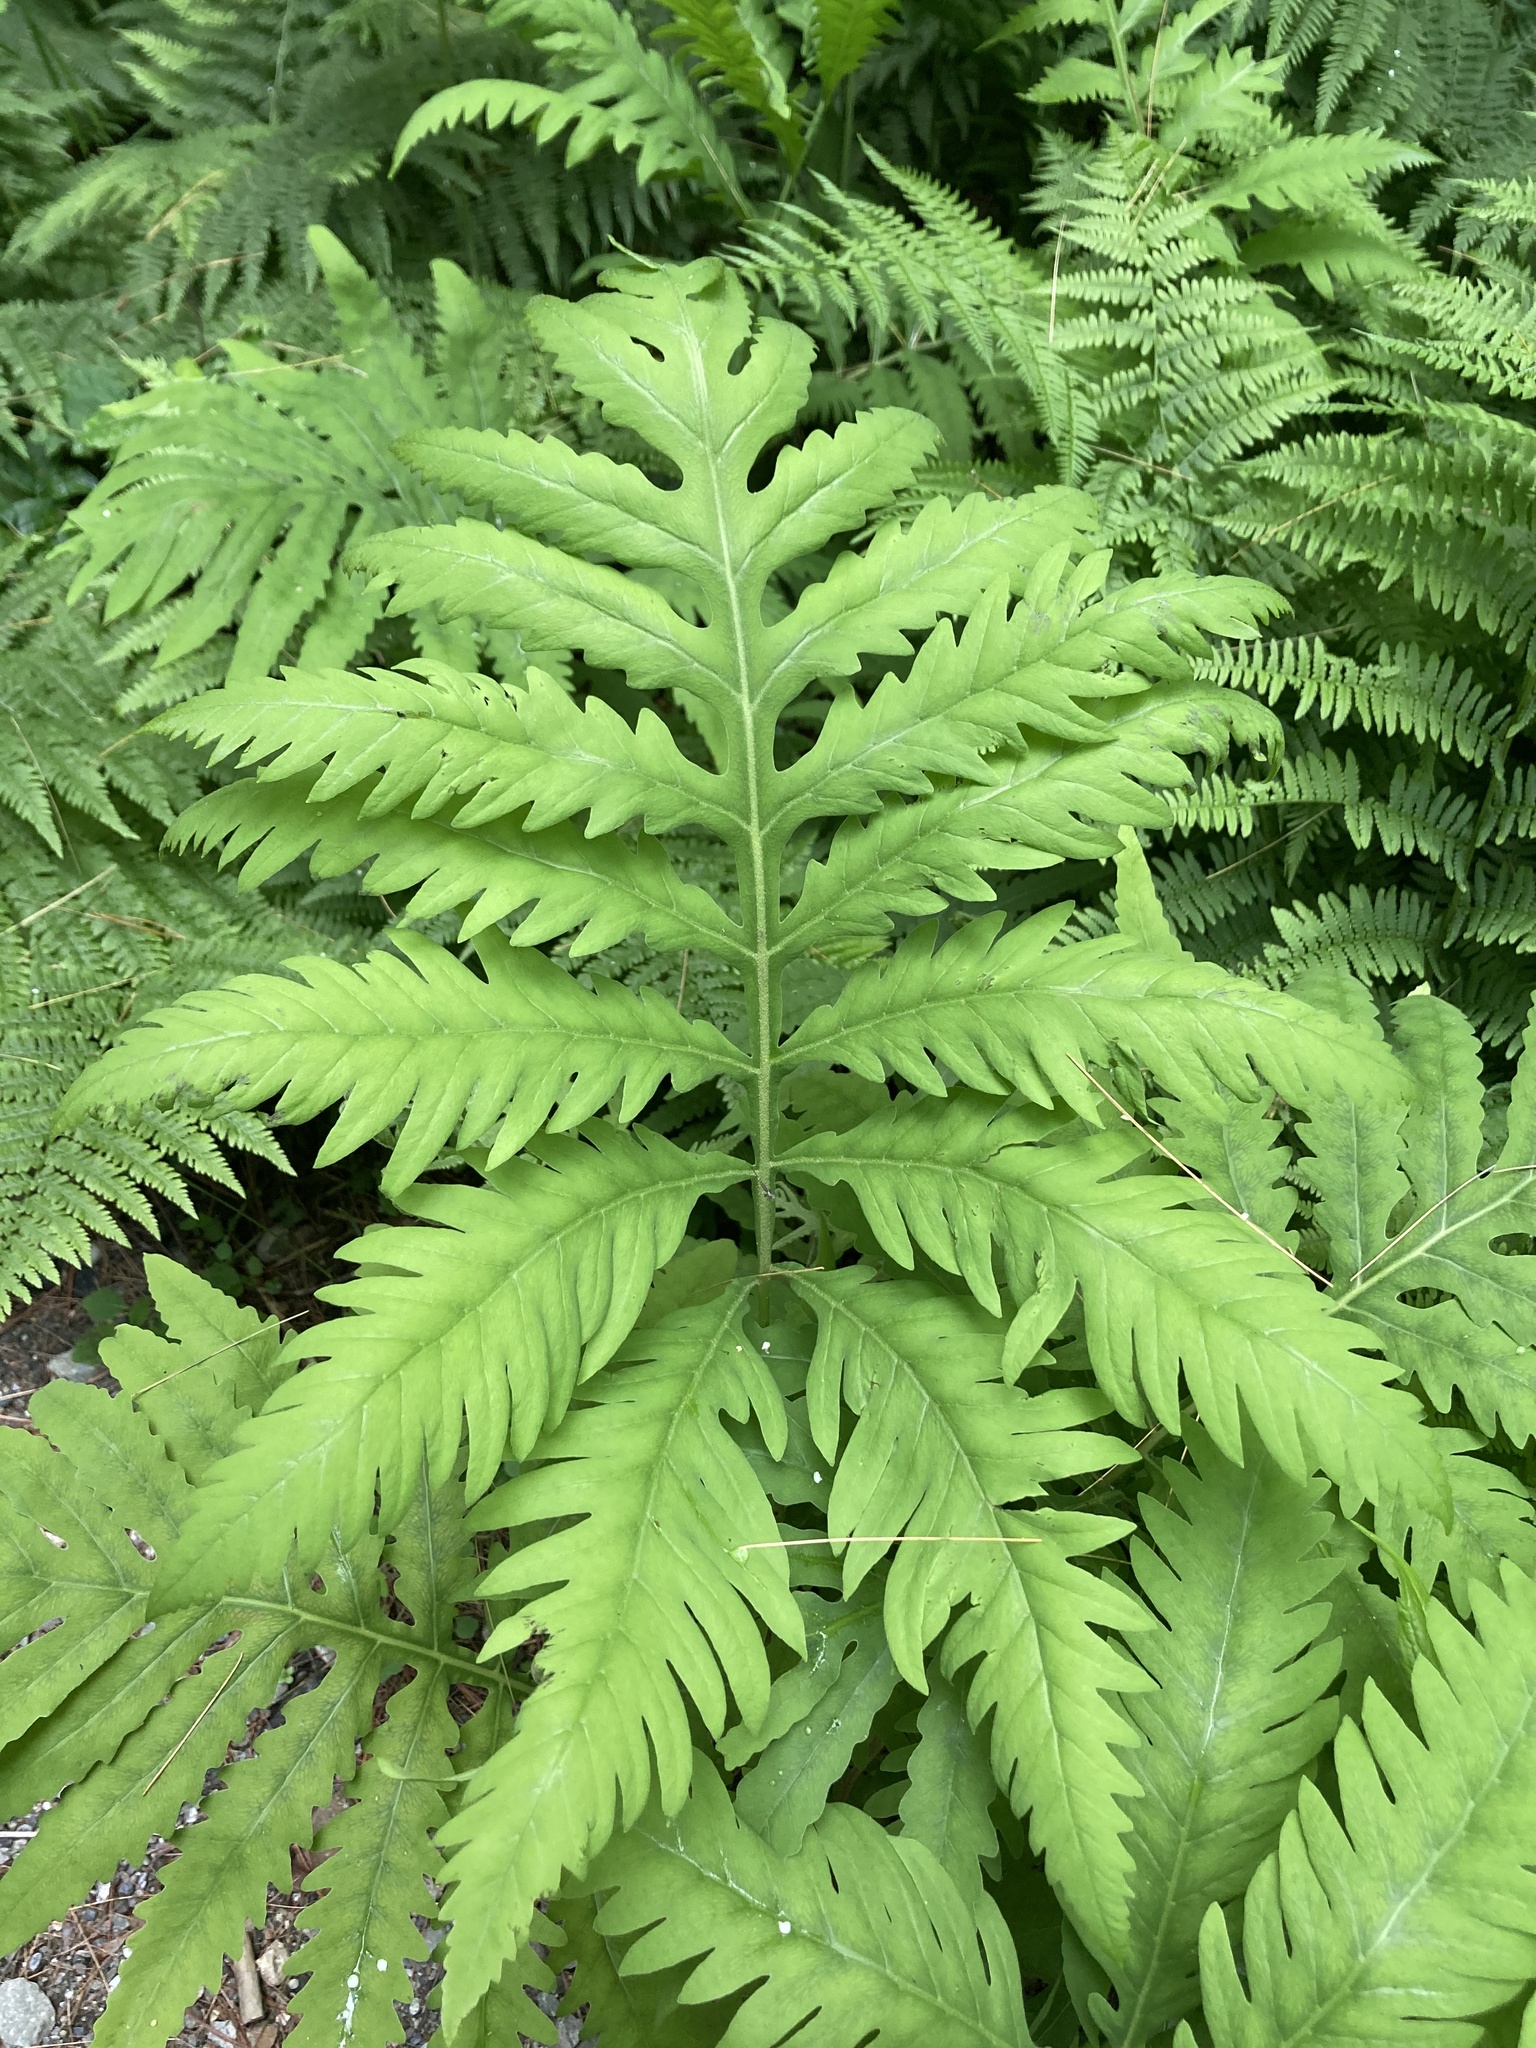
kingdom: Plantae
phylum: Tracheophyta
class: Polypodiopsida
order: Polypodiales
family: Onocleaceae
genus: Onoclea
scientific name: Onoclea sensibilis
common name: Sensitive fern
